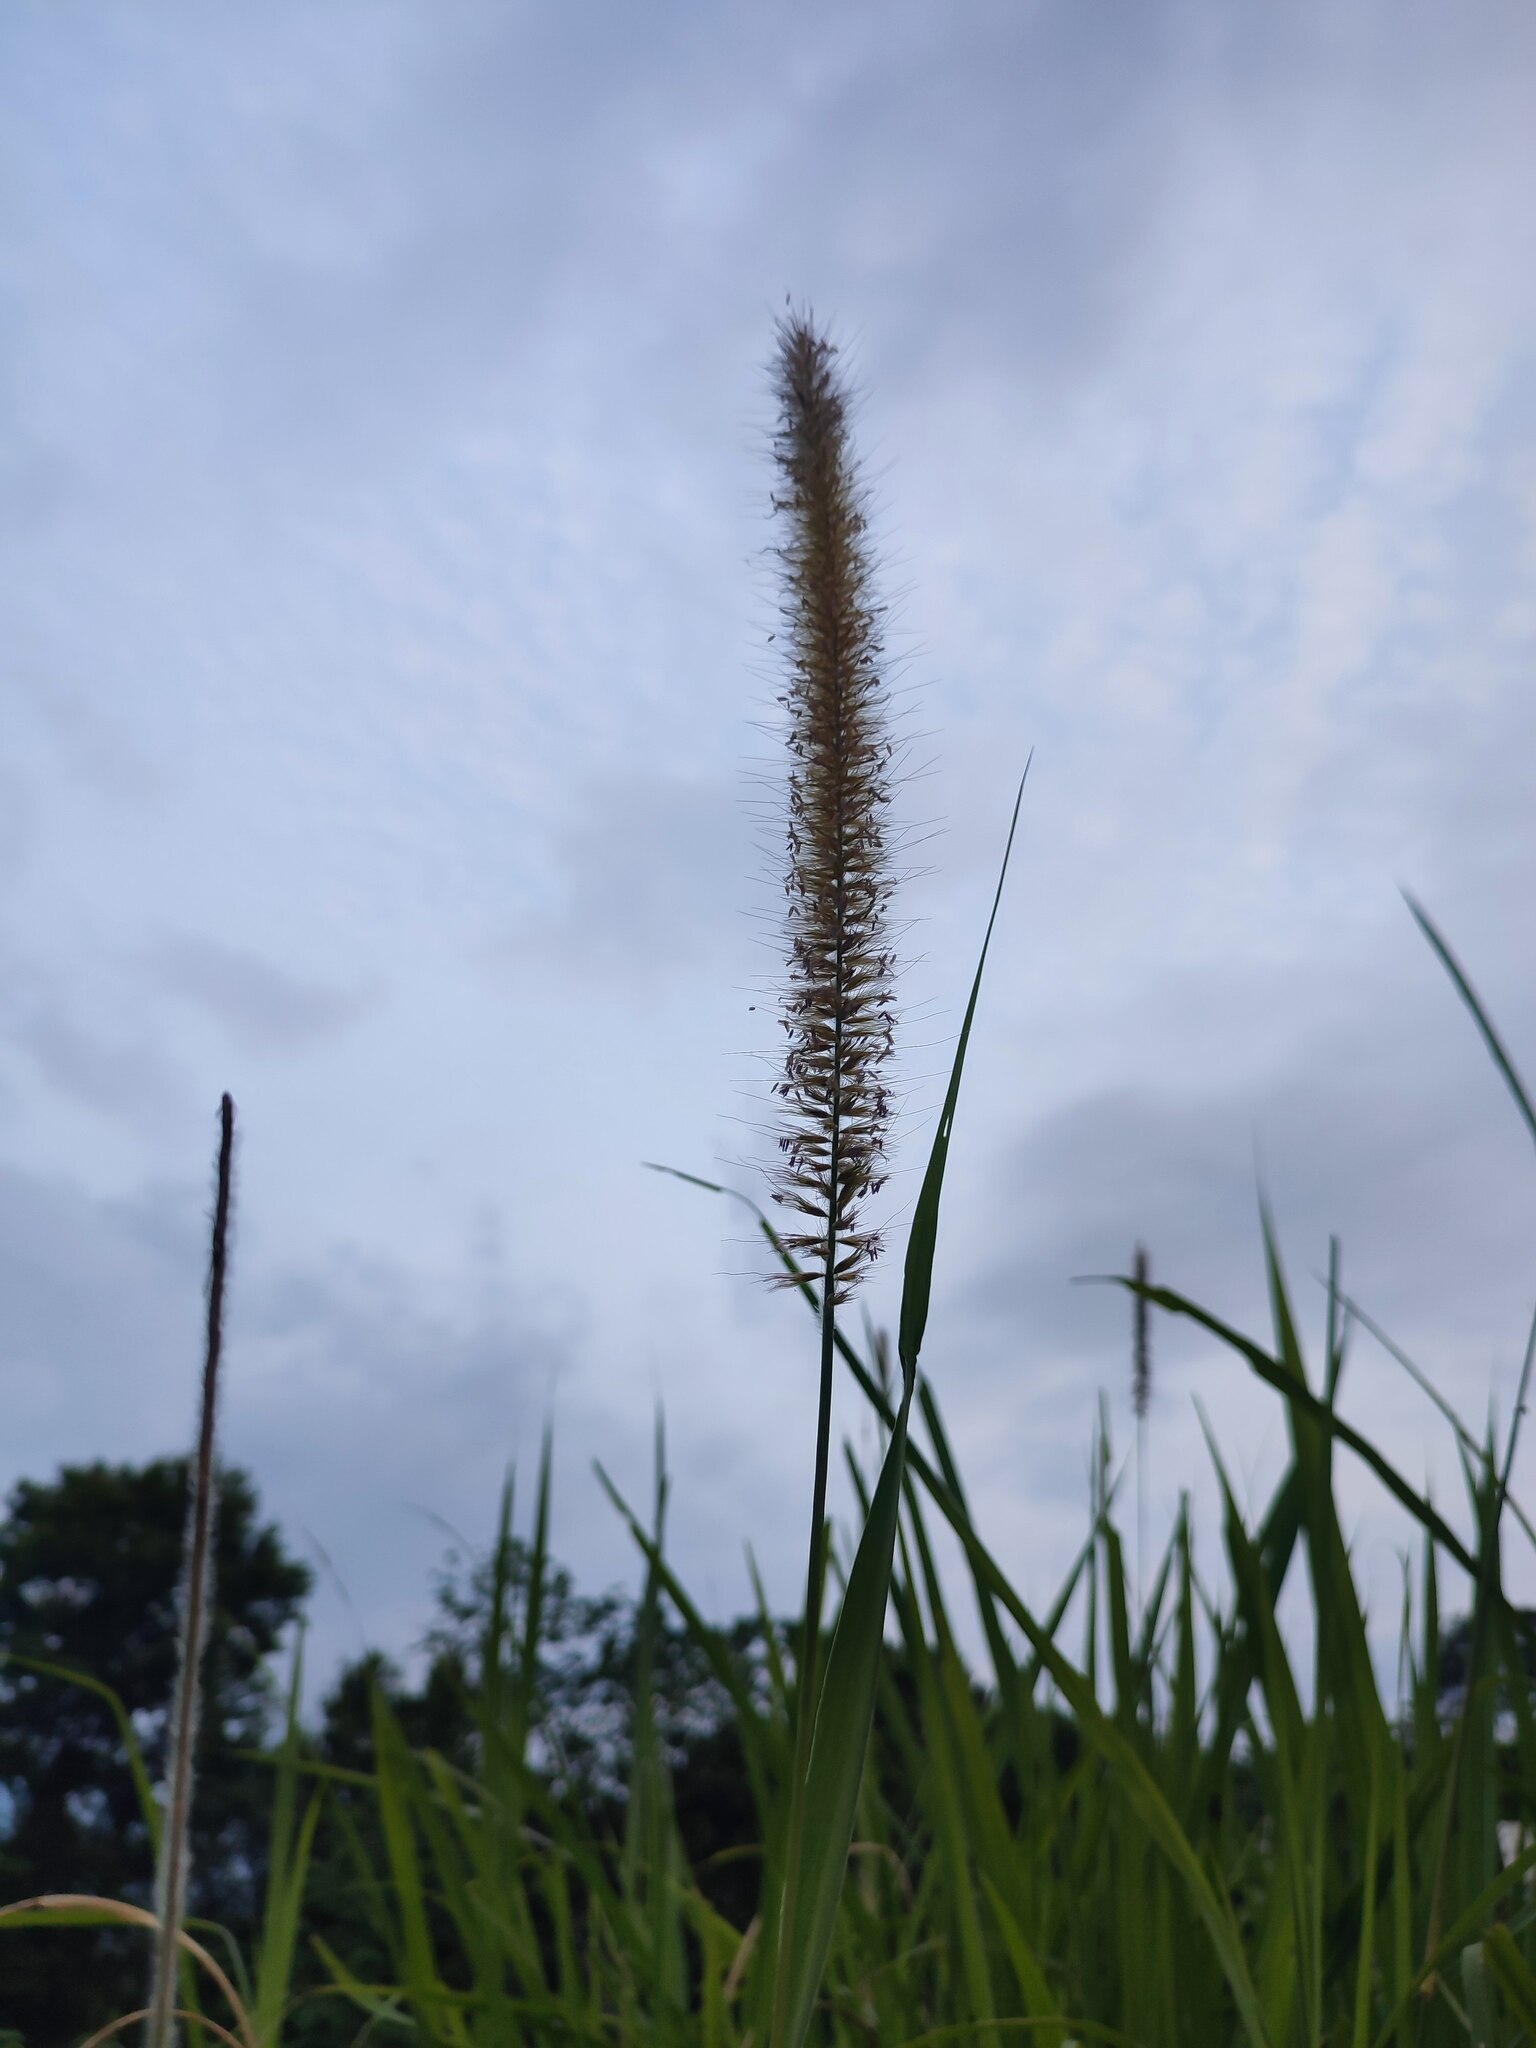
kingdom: Plantae
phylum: Tracheophyta
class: Liliopsida
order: Poales
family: Poaceae
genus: Cenchrus
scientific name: Cenchrus purpureus
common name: Elephant grass
